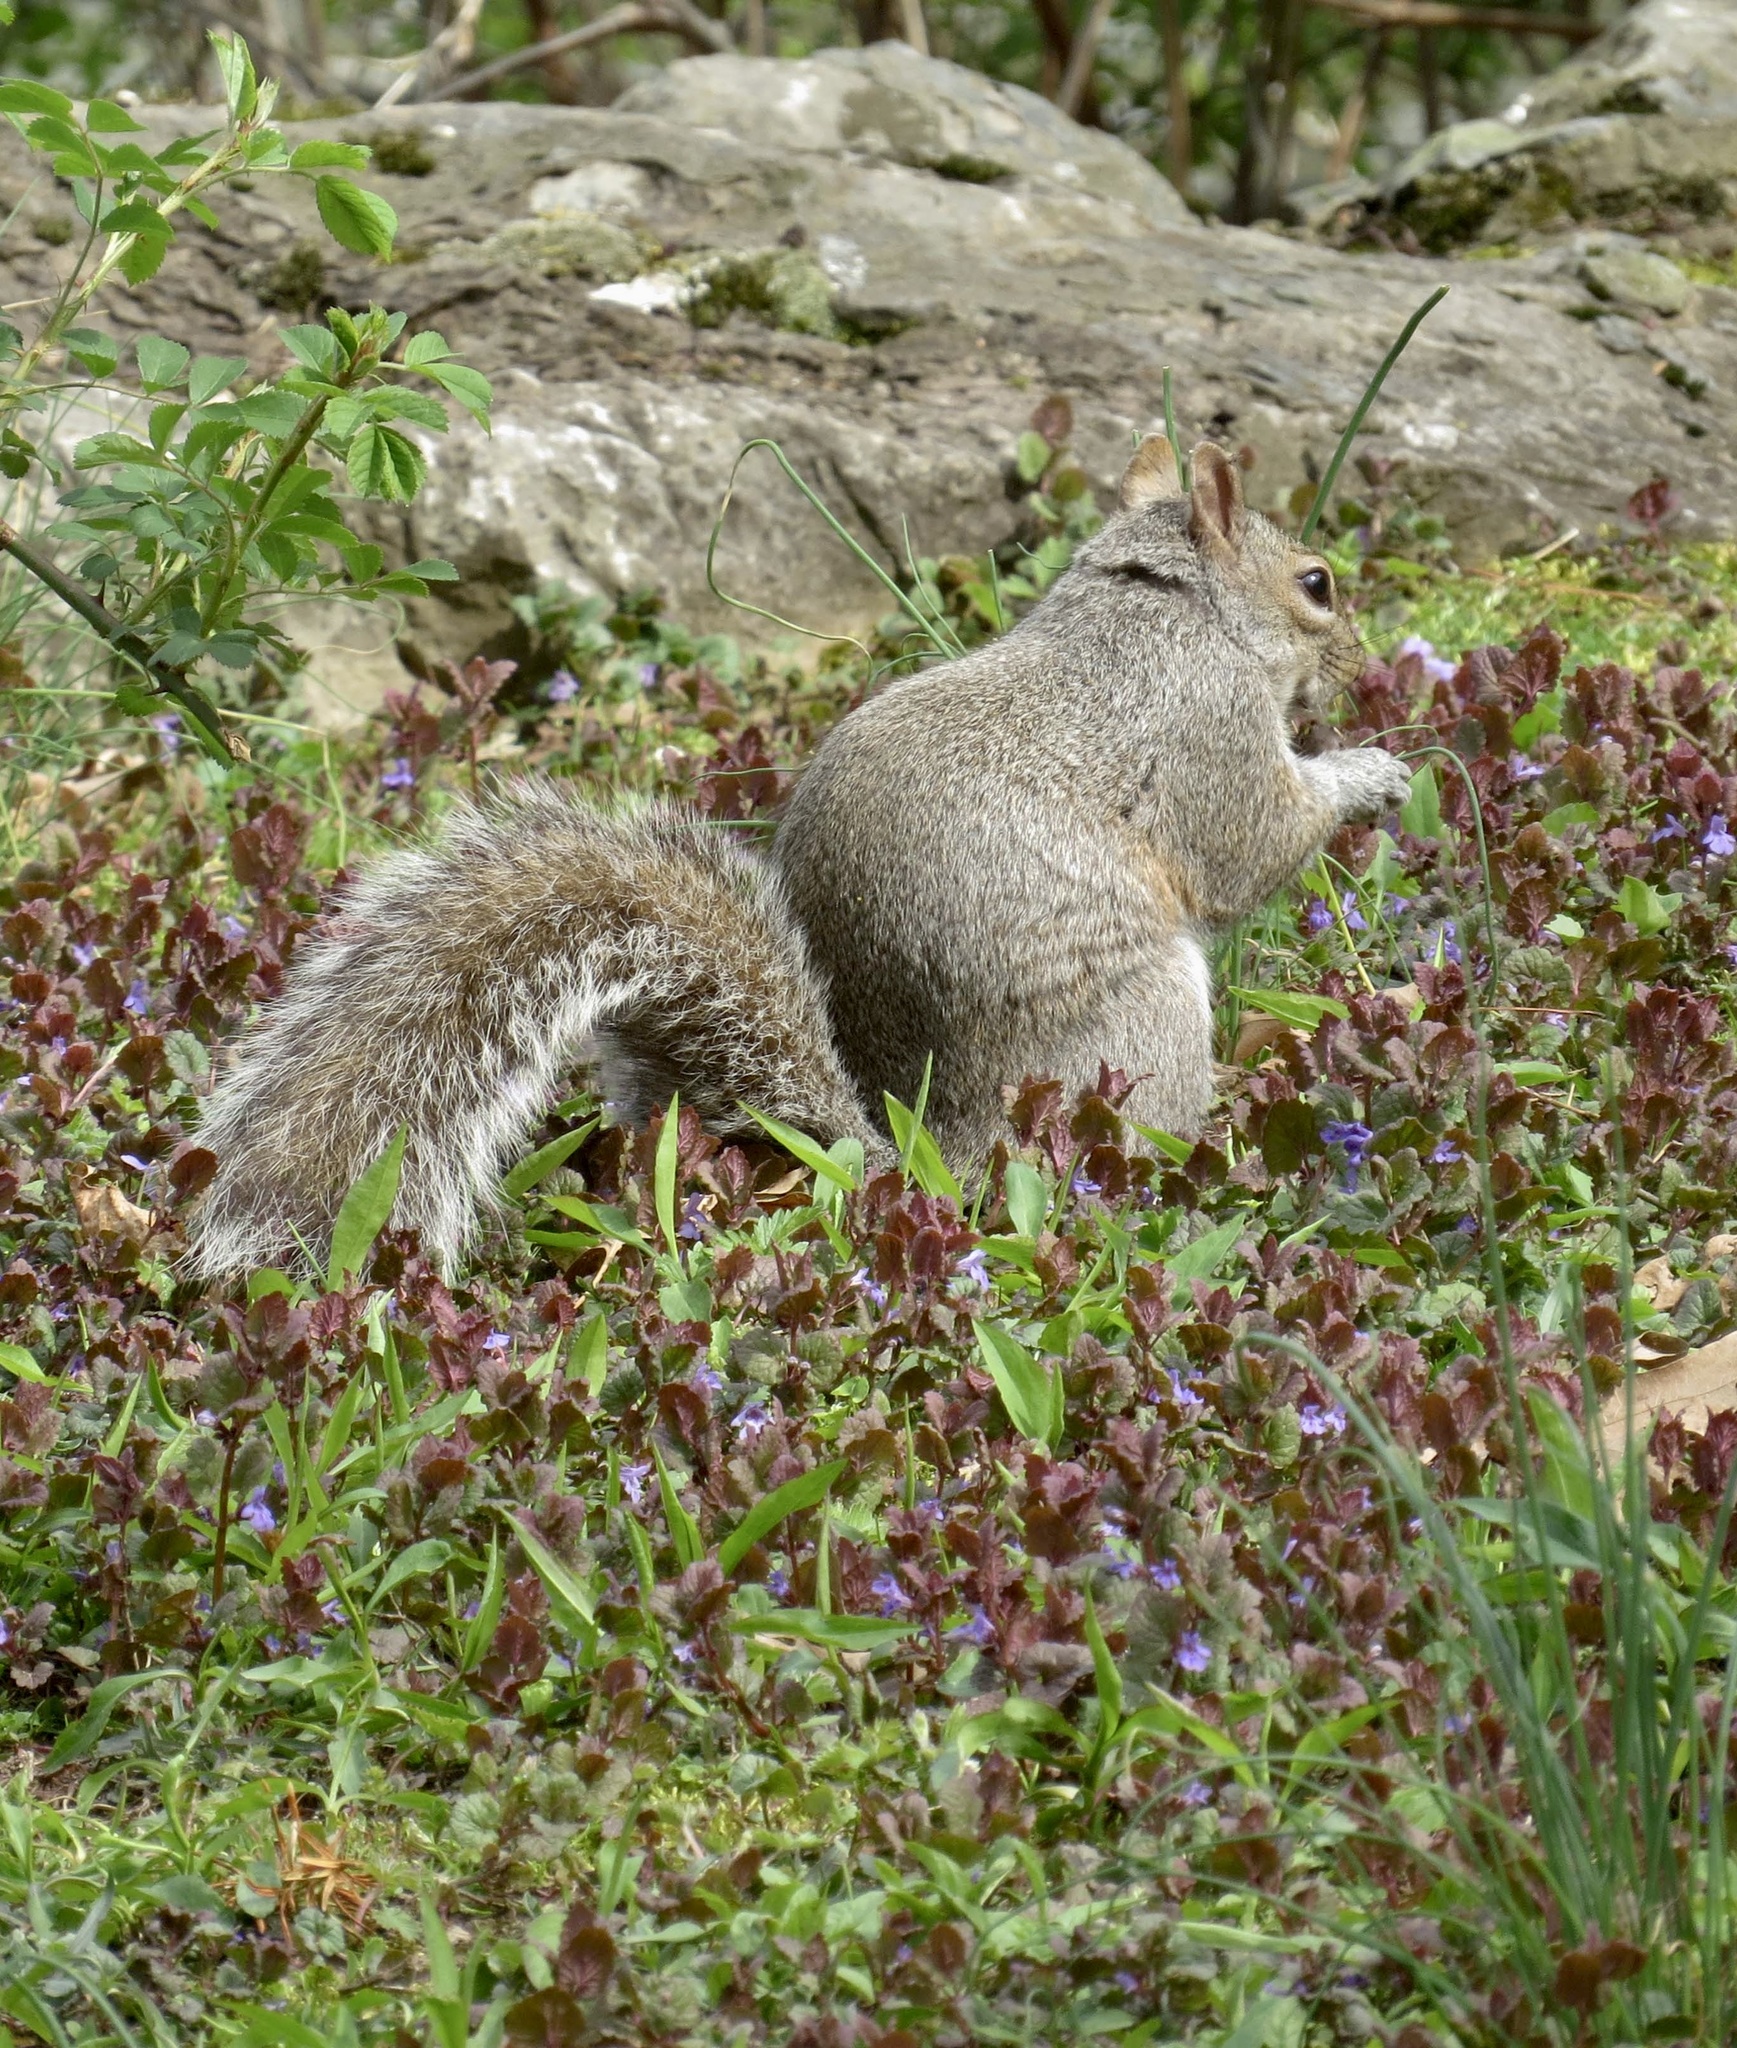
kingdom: Animalia
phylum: Chordata
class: Mammalia
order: Rodentia
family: Sciuridae
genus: Sciurus
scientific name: Sciurus carolinensis
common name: Eastern gray squirrel
